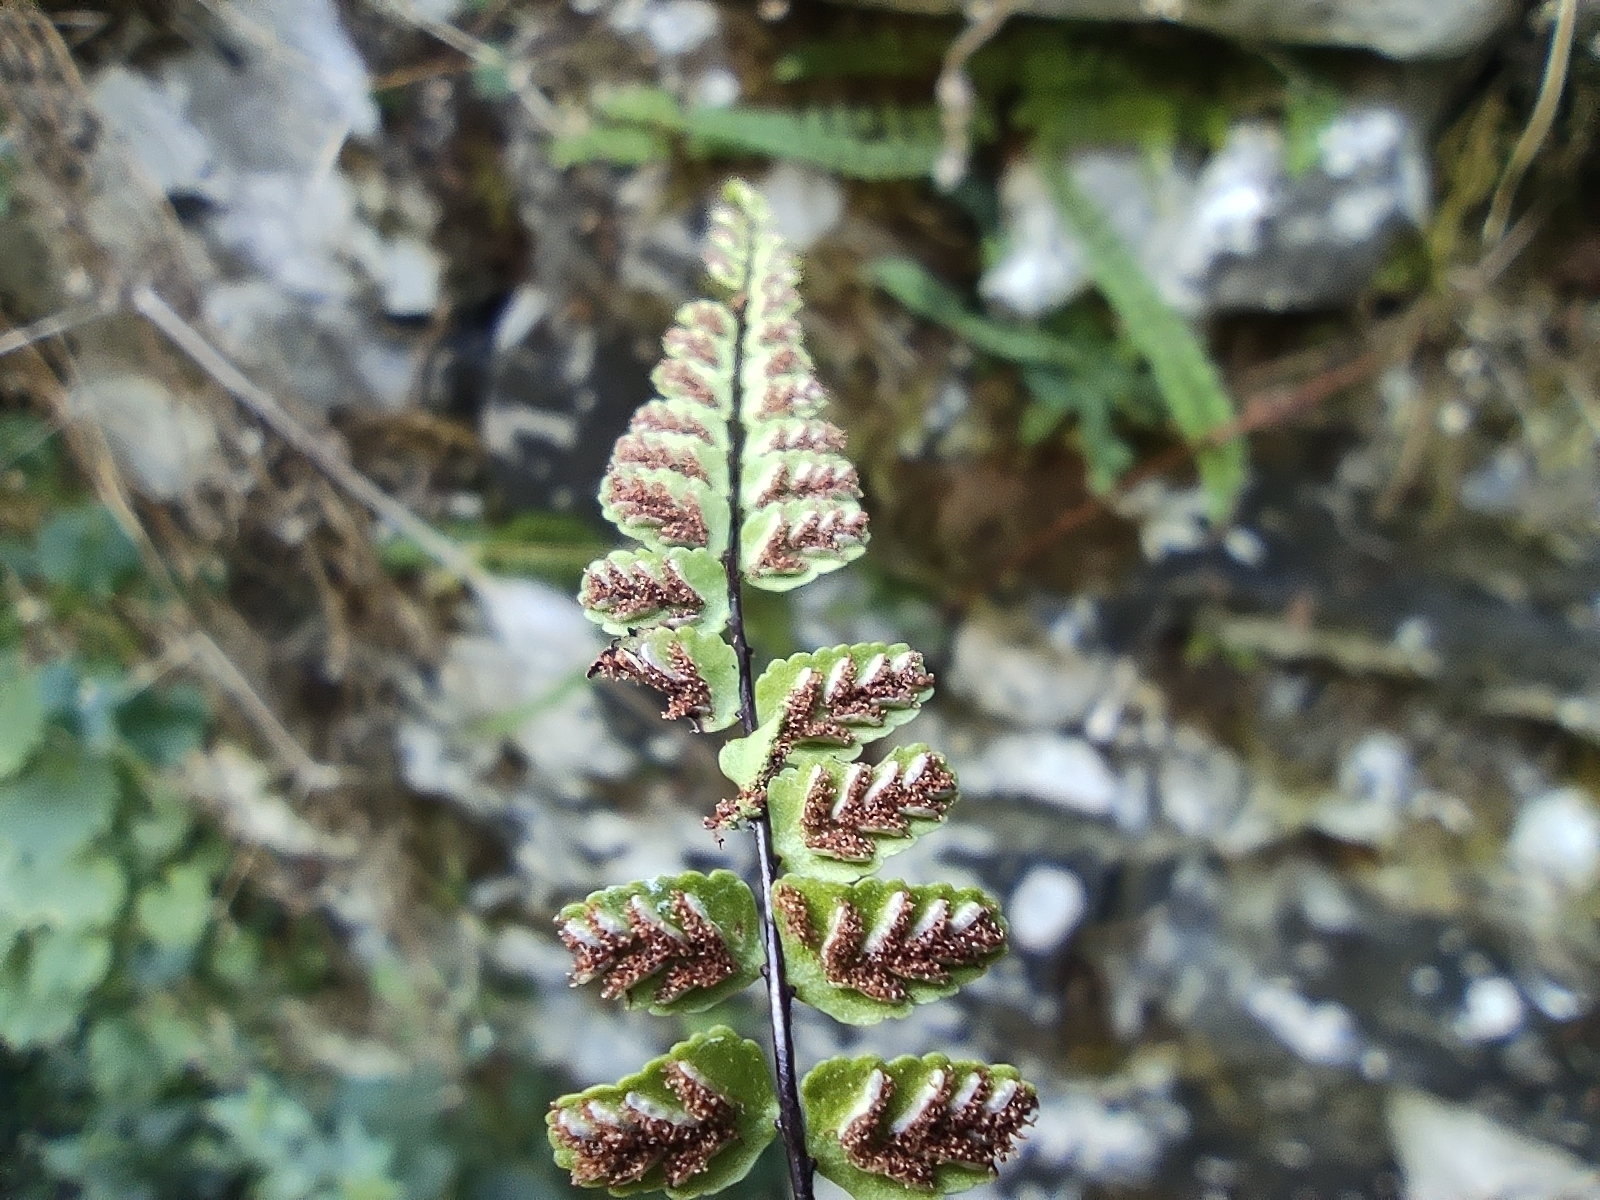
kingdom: Plantae
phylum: Tracheophyta
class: Polypodiopsida
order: Polypodiales
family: Aspleniaceae
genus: Asplenium
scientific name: Asplenium trichomanes
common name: Maidenhair spleenwort
